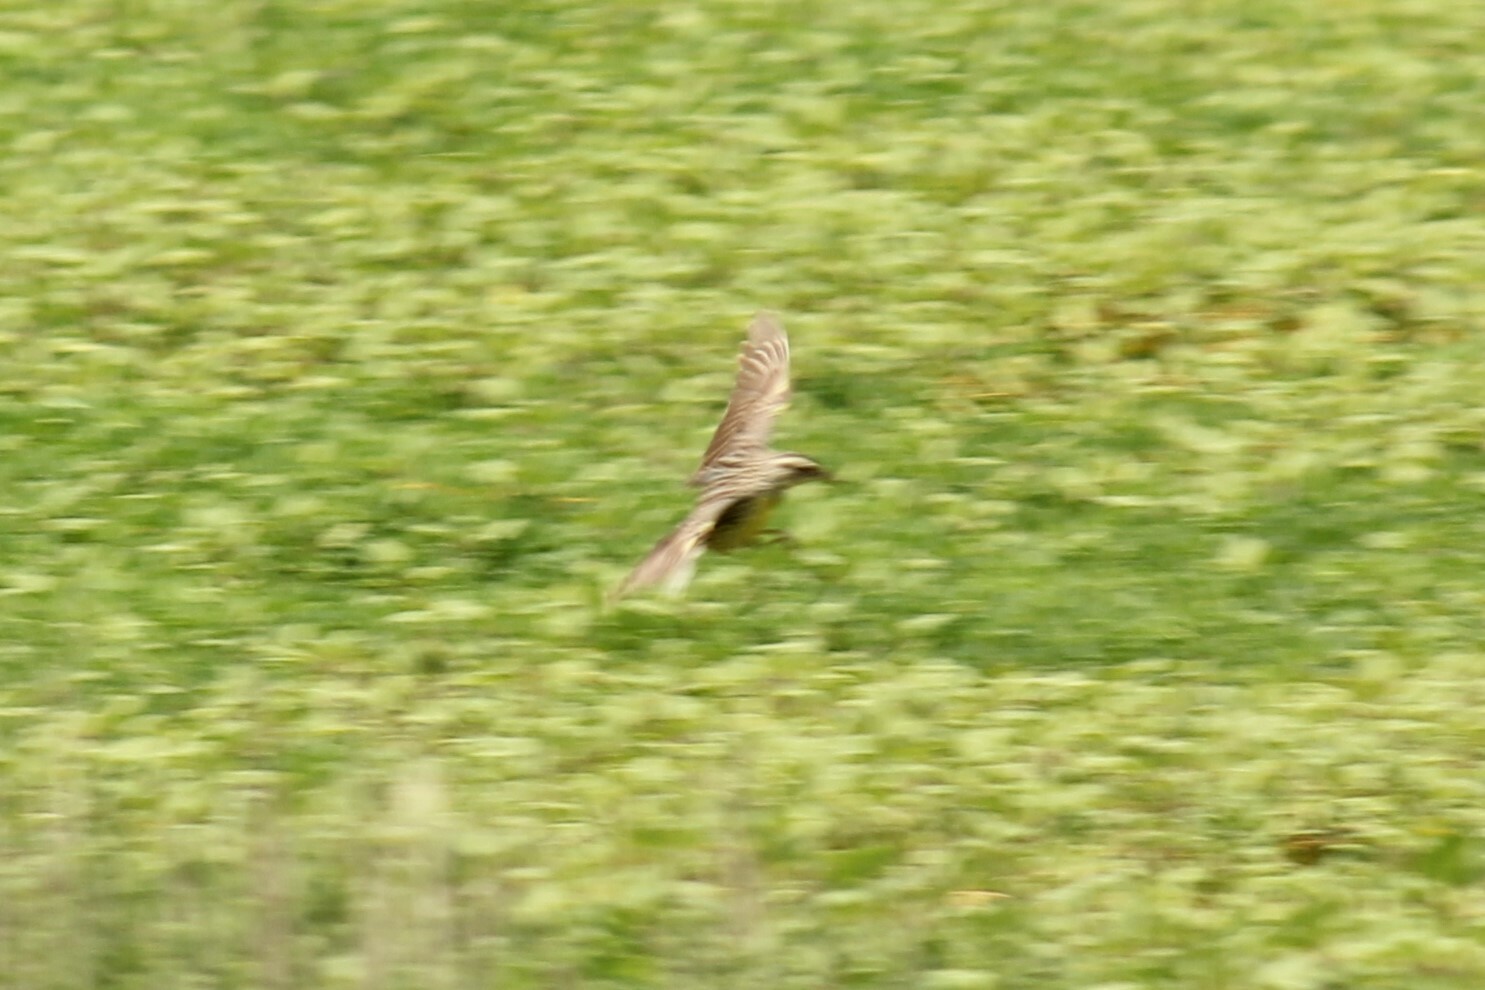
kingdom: Animalia
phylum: Chordata
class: Aves
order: Passeriformes
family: Icteridae
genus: Sturnella
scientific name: Sturnella neglecta
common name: Western meadowlark
